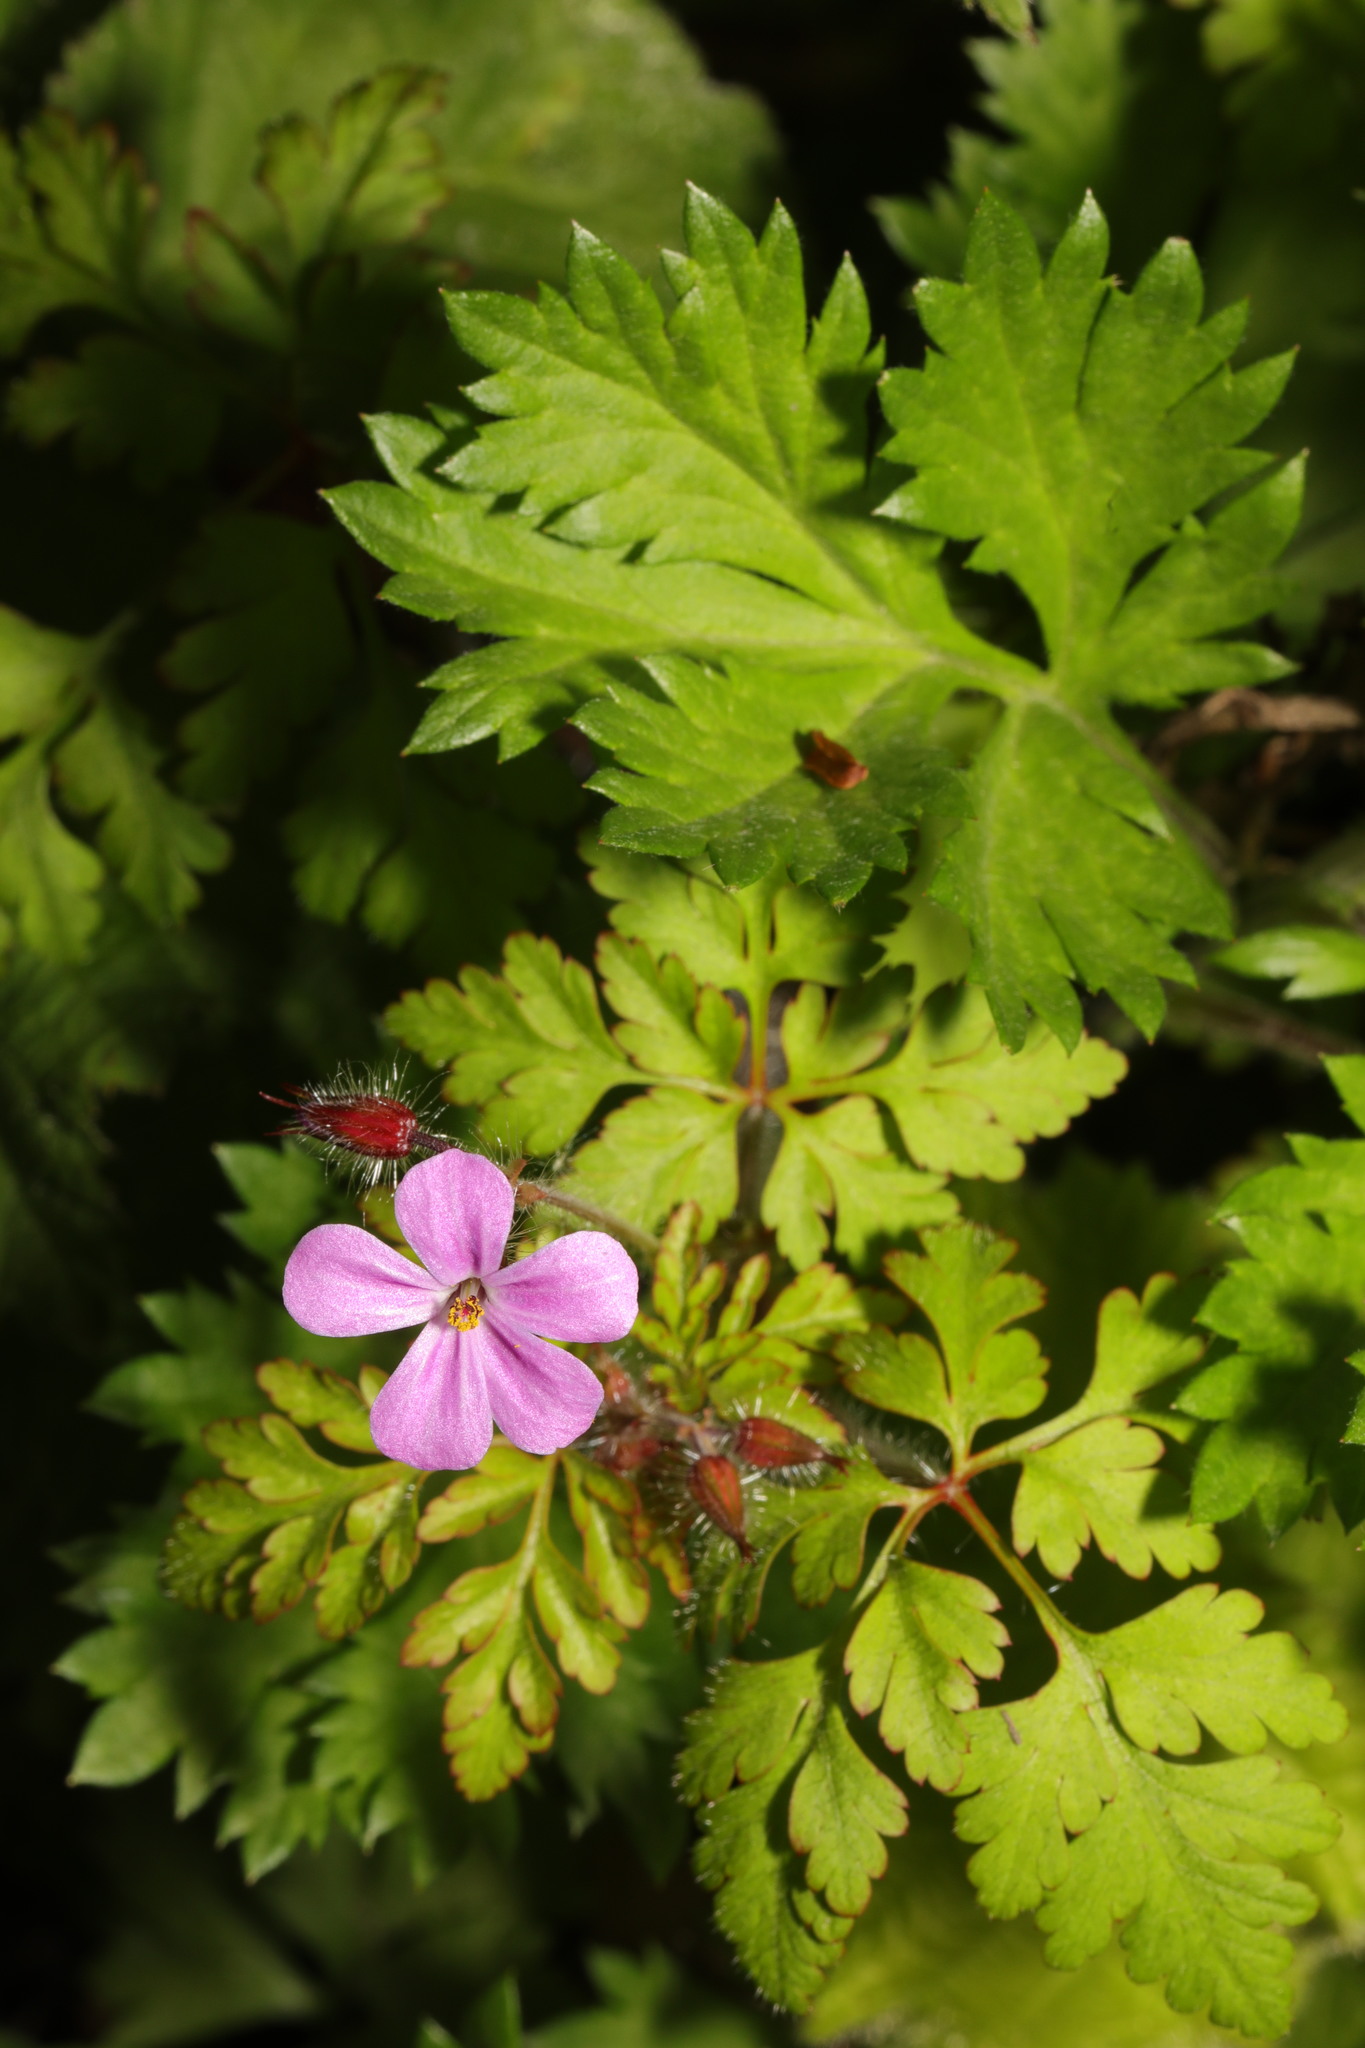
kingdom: Plantae
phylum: Tracheophyta
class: Magnoliopsida
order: Geraniales
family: Geraniaceae
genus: Geranium
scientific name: Geranium robertianum
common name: Herb-robert
